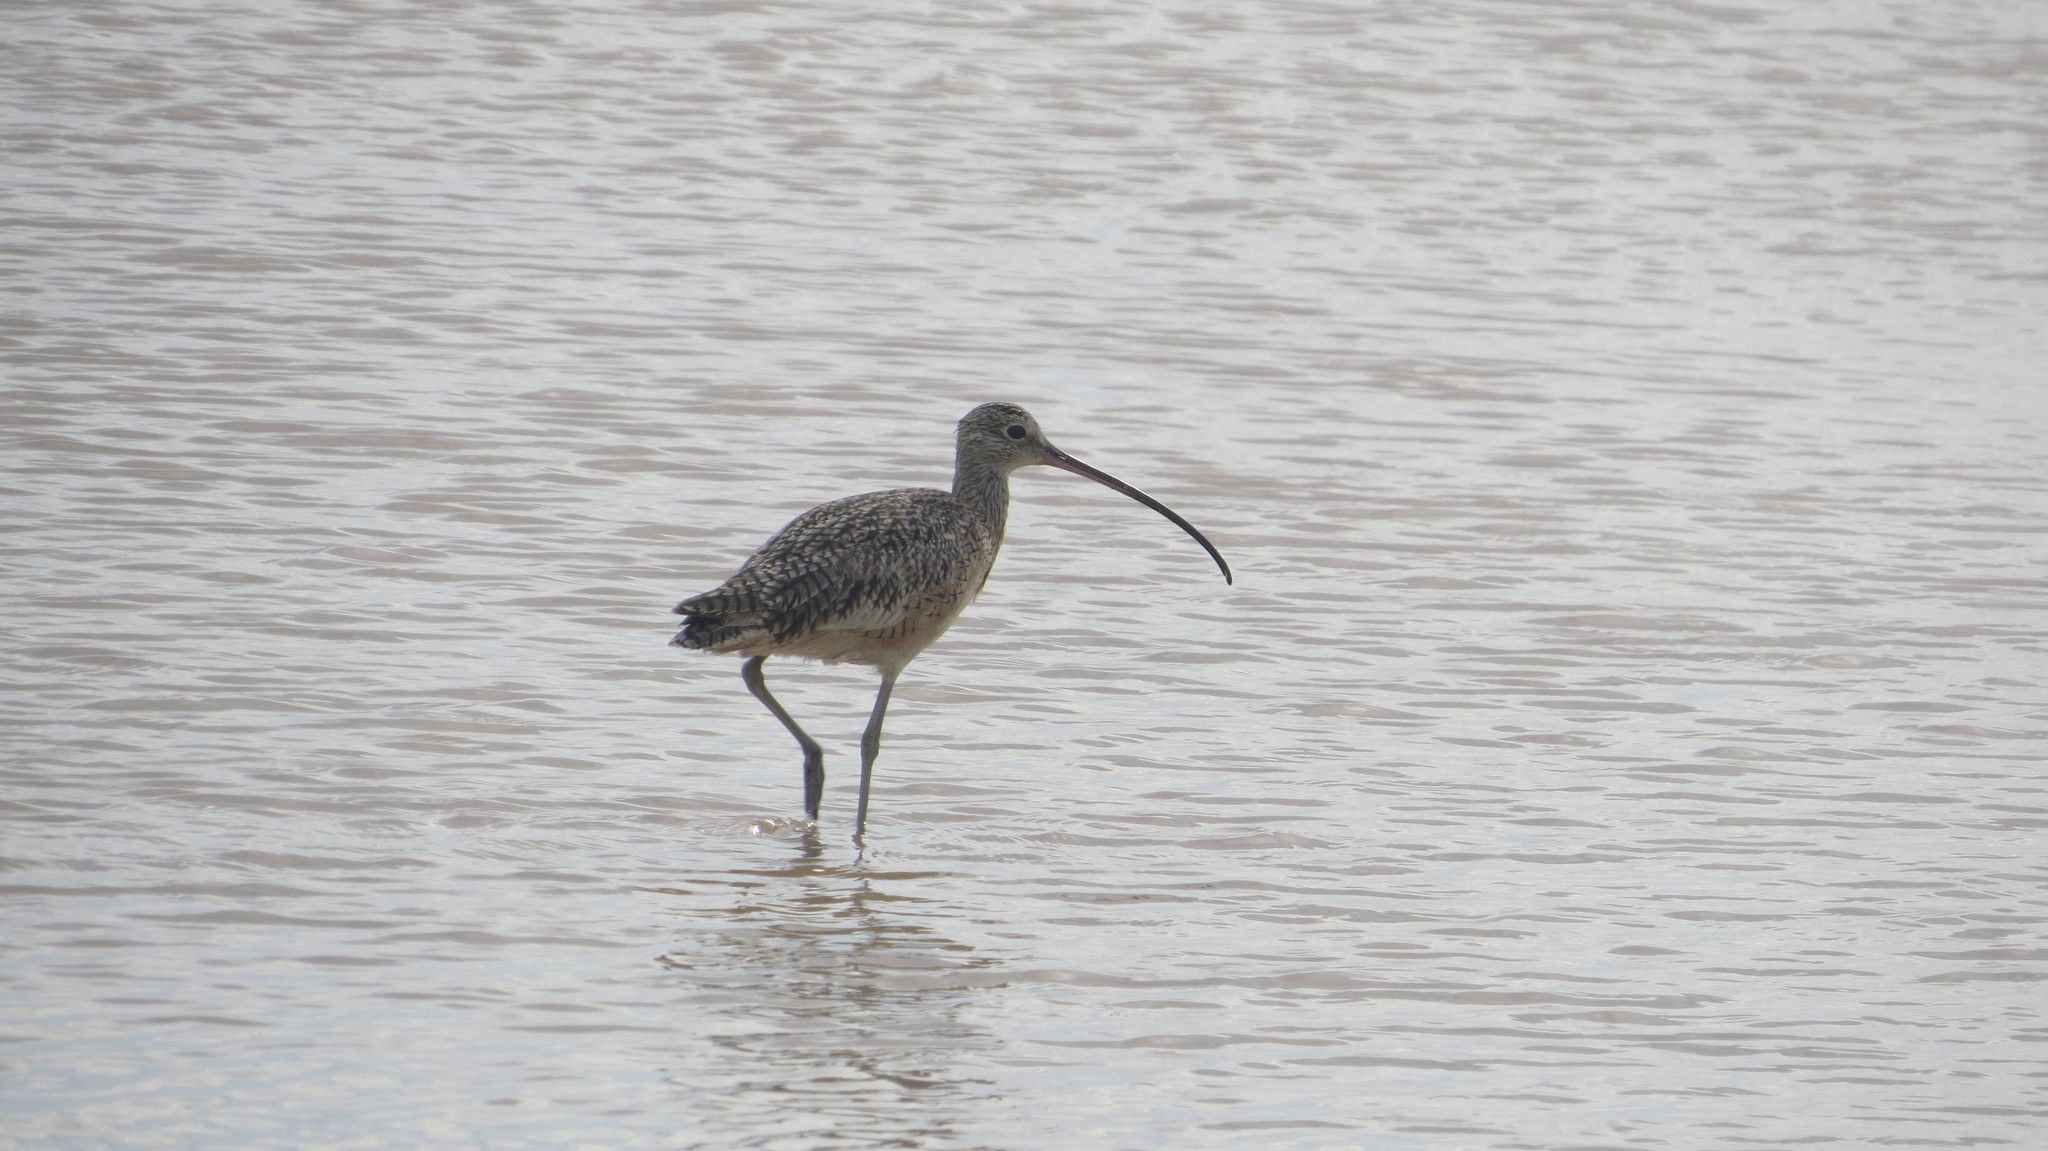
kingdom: Animalia
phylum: Chordata
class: Aves
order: Charadriiformes
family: Scolopacidae
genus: Numenius
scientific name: Numenius americanus
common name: Long-billed curlew
